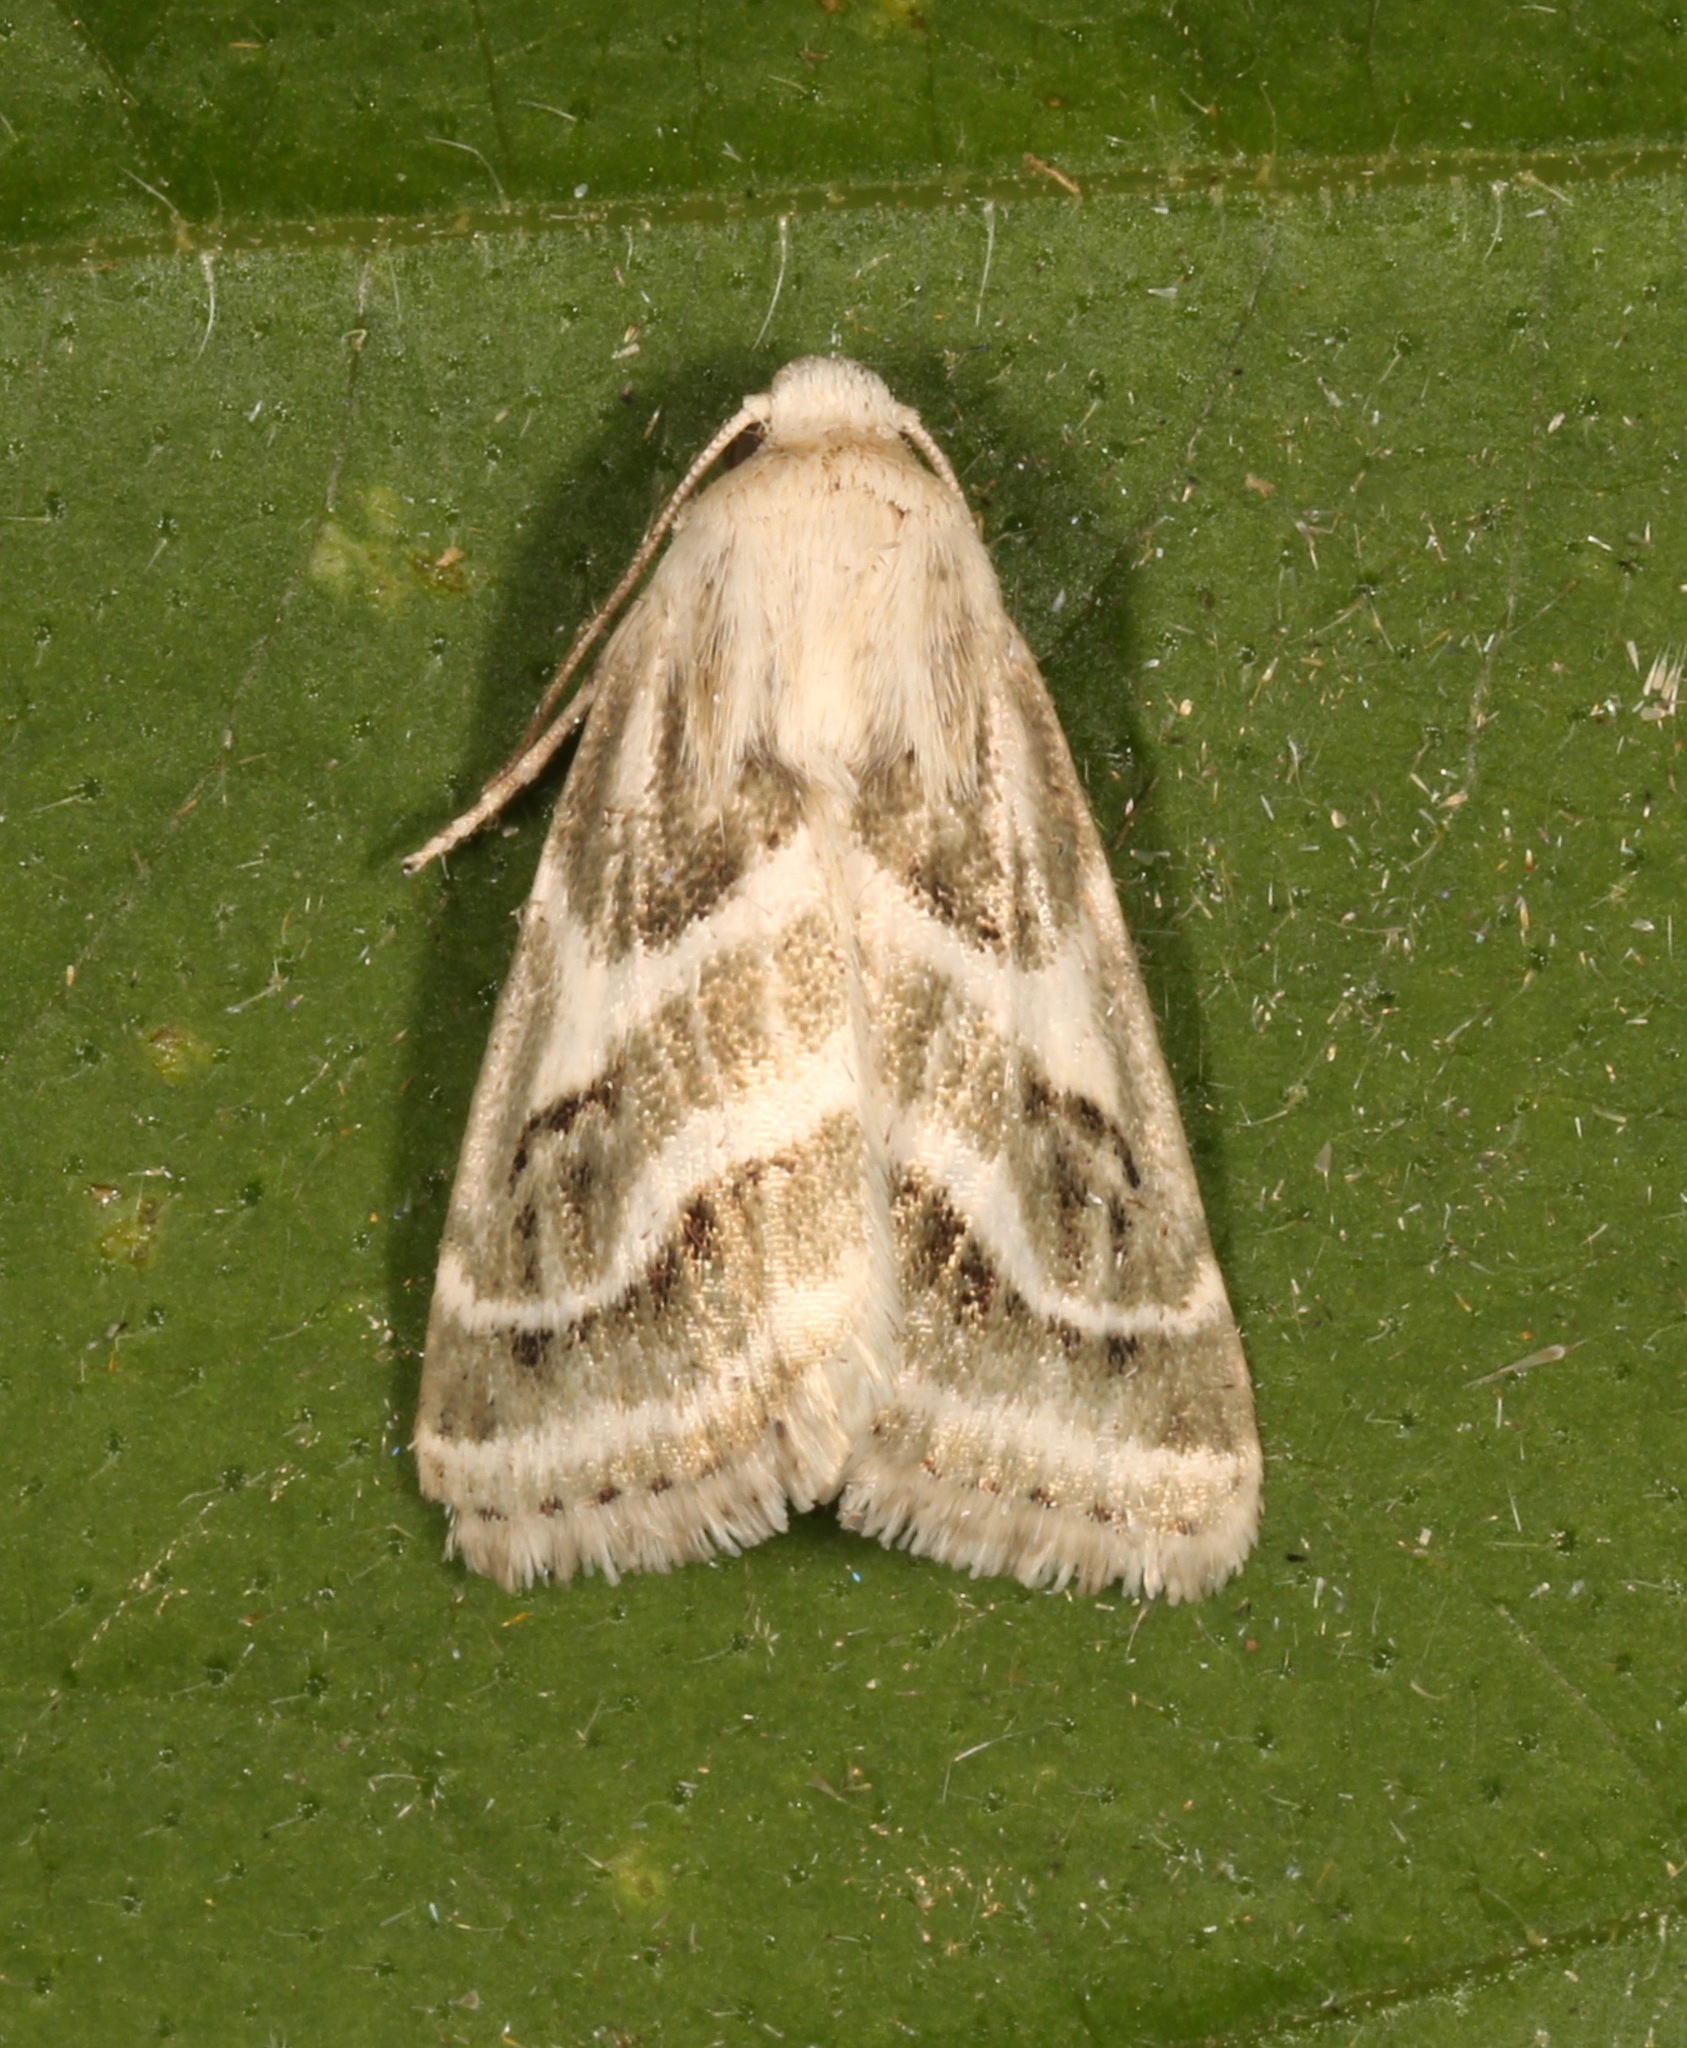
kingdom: Animalia
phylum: Arthropoda
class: Insecta
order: Lepidoptera
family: Noctuidae
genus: Schinia
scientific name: Schinia accessa
